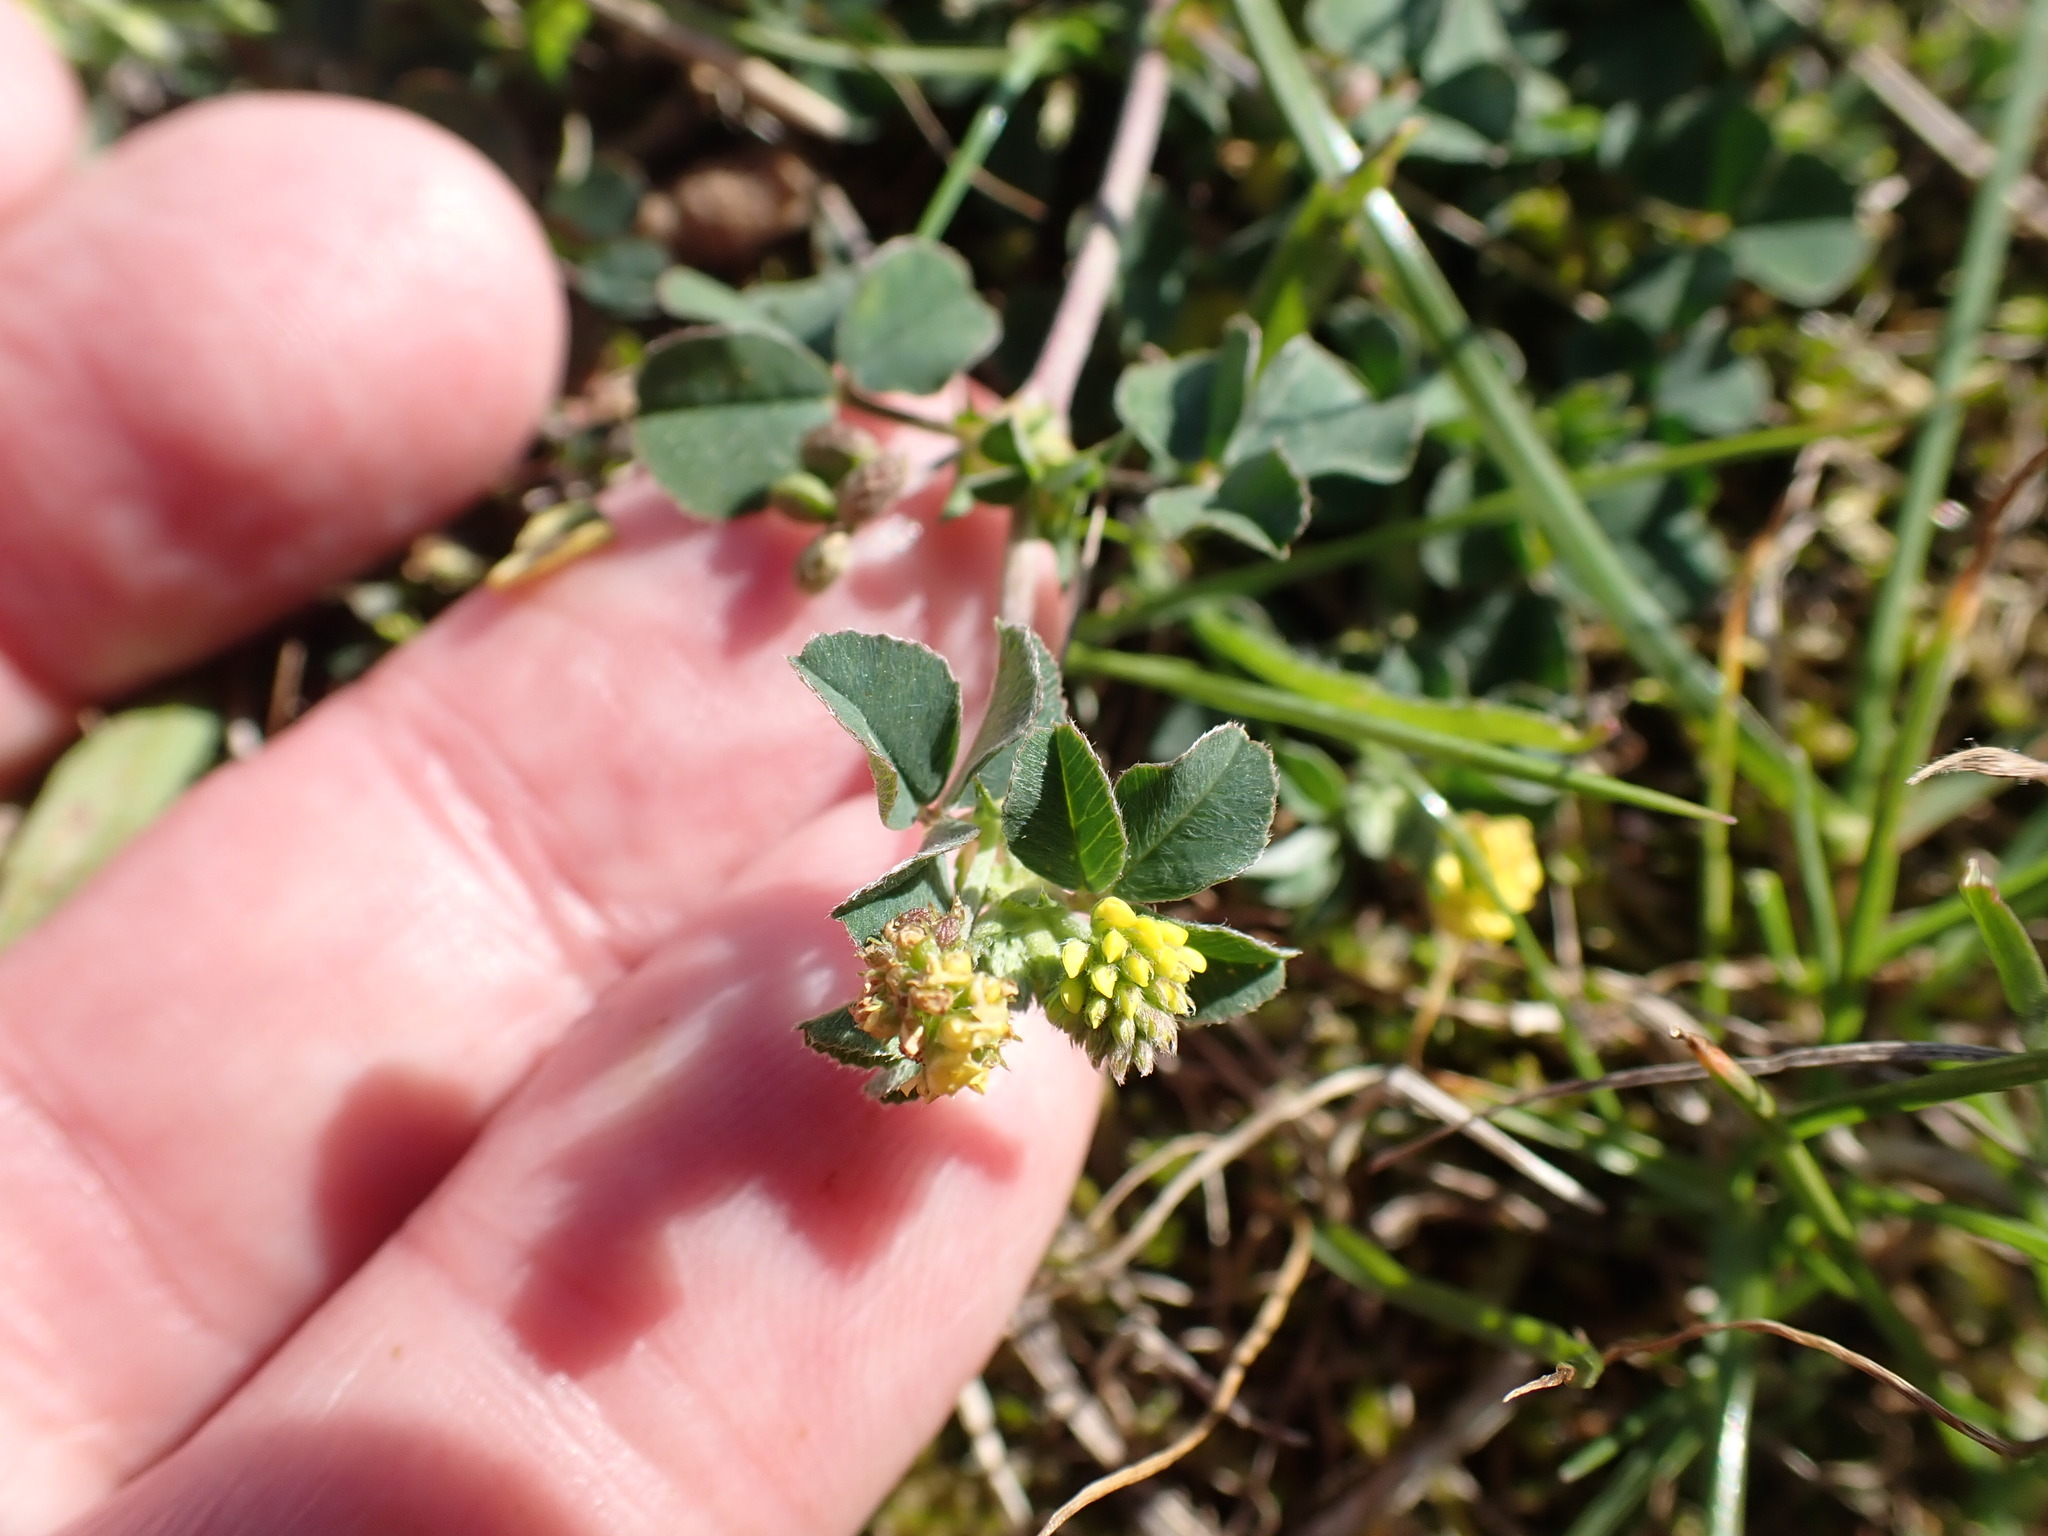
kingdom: Plantae
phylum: Tracheophyta
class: Magnoliopsida
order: Fabales
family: Fabaceae
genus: Medicago
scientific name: Medicago lupulina
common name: Black medick
